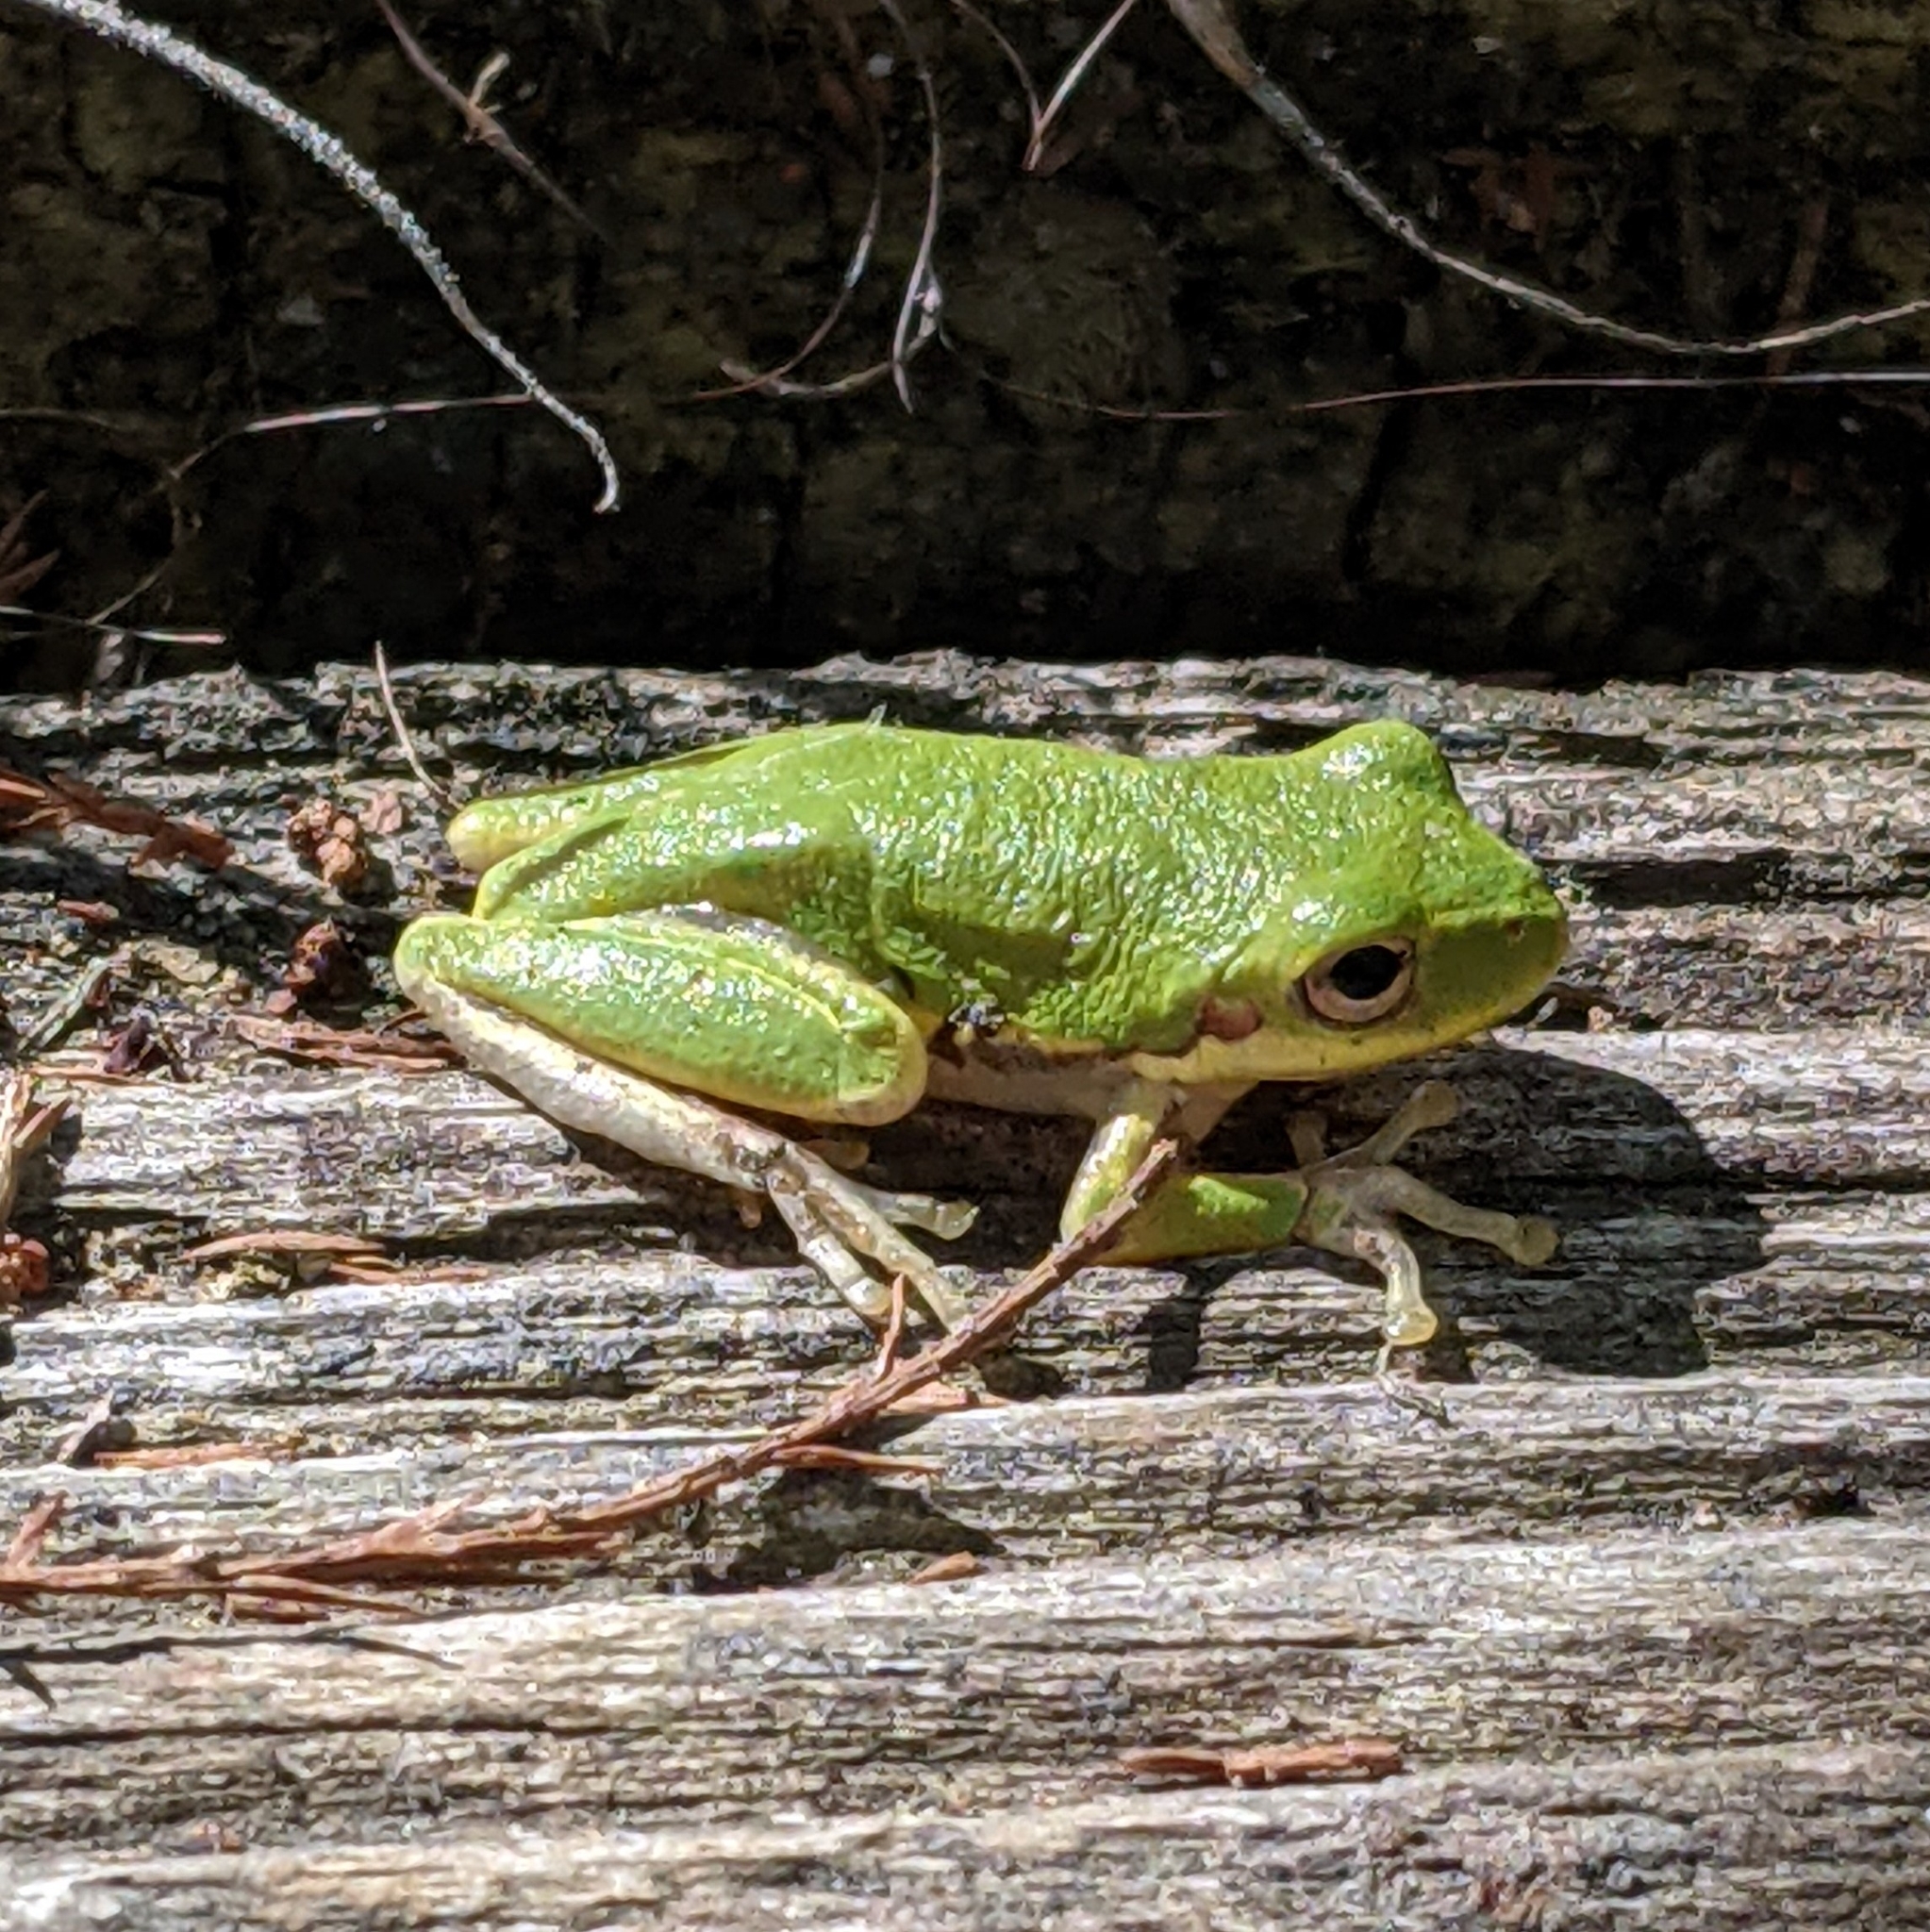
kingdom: Animalia
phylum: Chordata
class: Amphibia
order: Anura
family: Hylidae
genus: Dryophytes
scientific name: Dryophytes squirellus
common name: Squirrel treefrog
